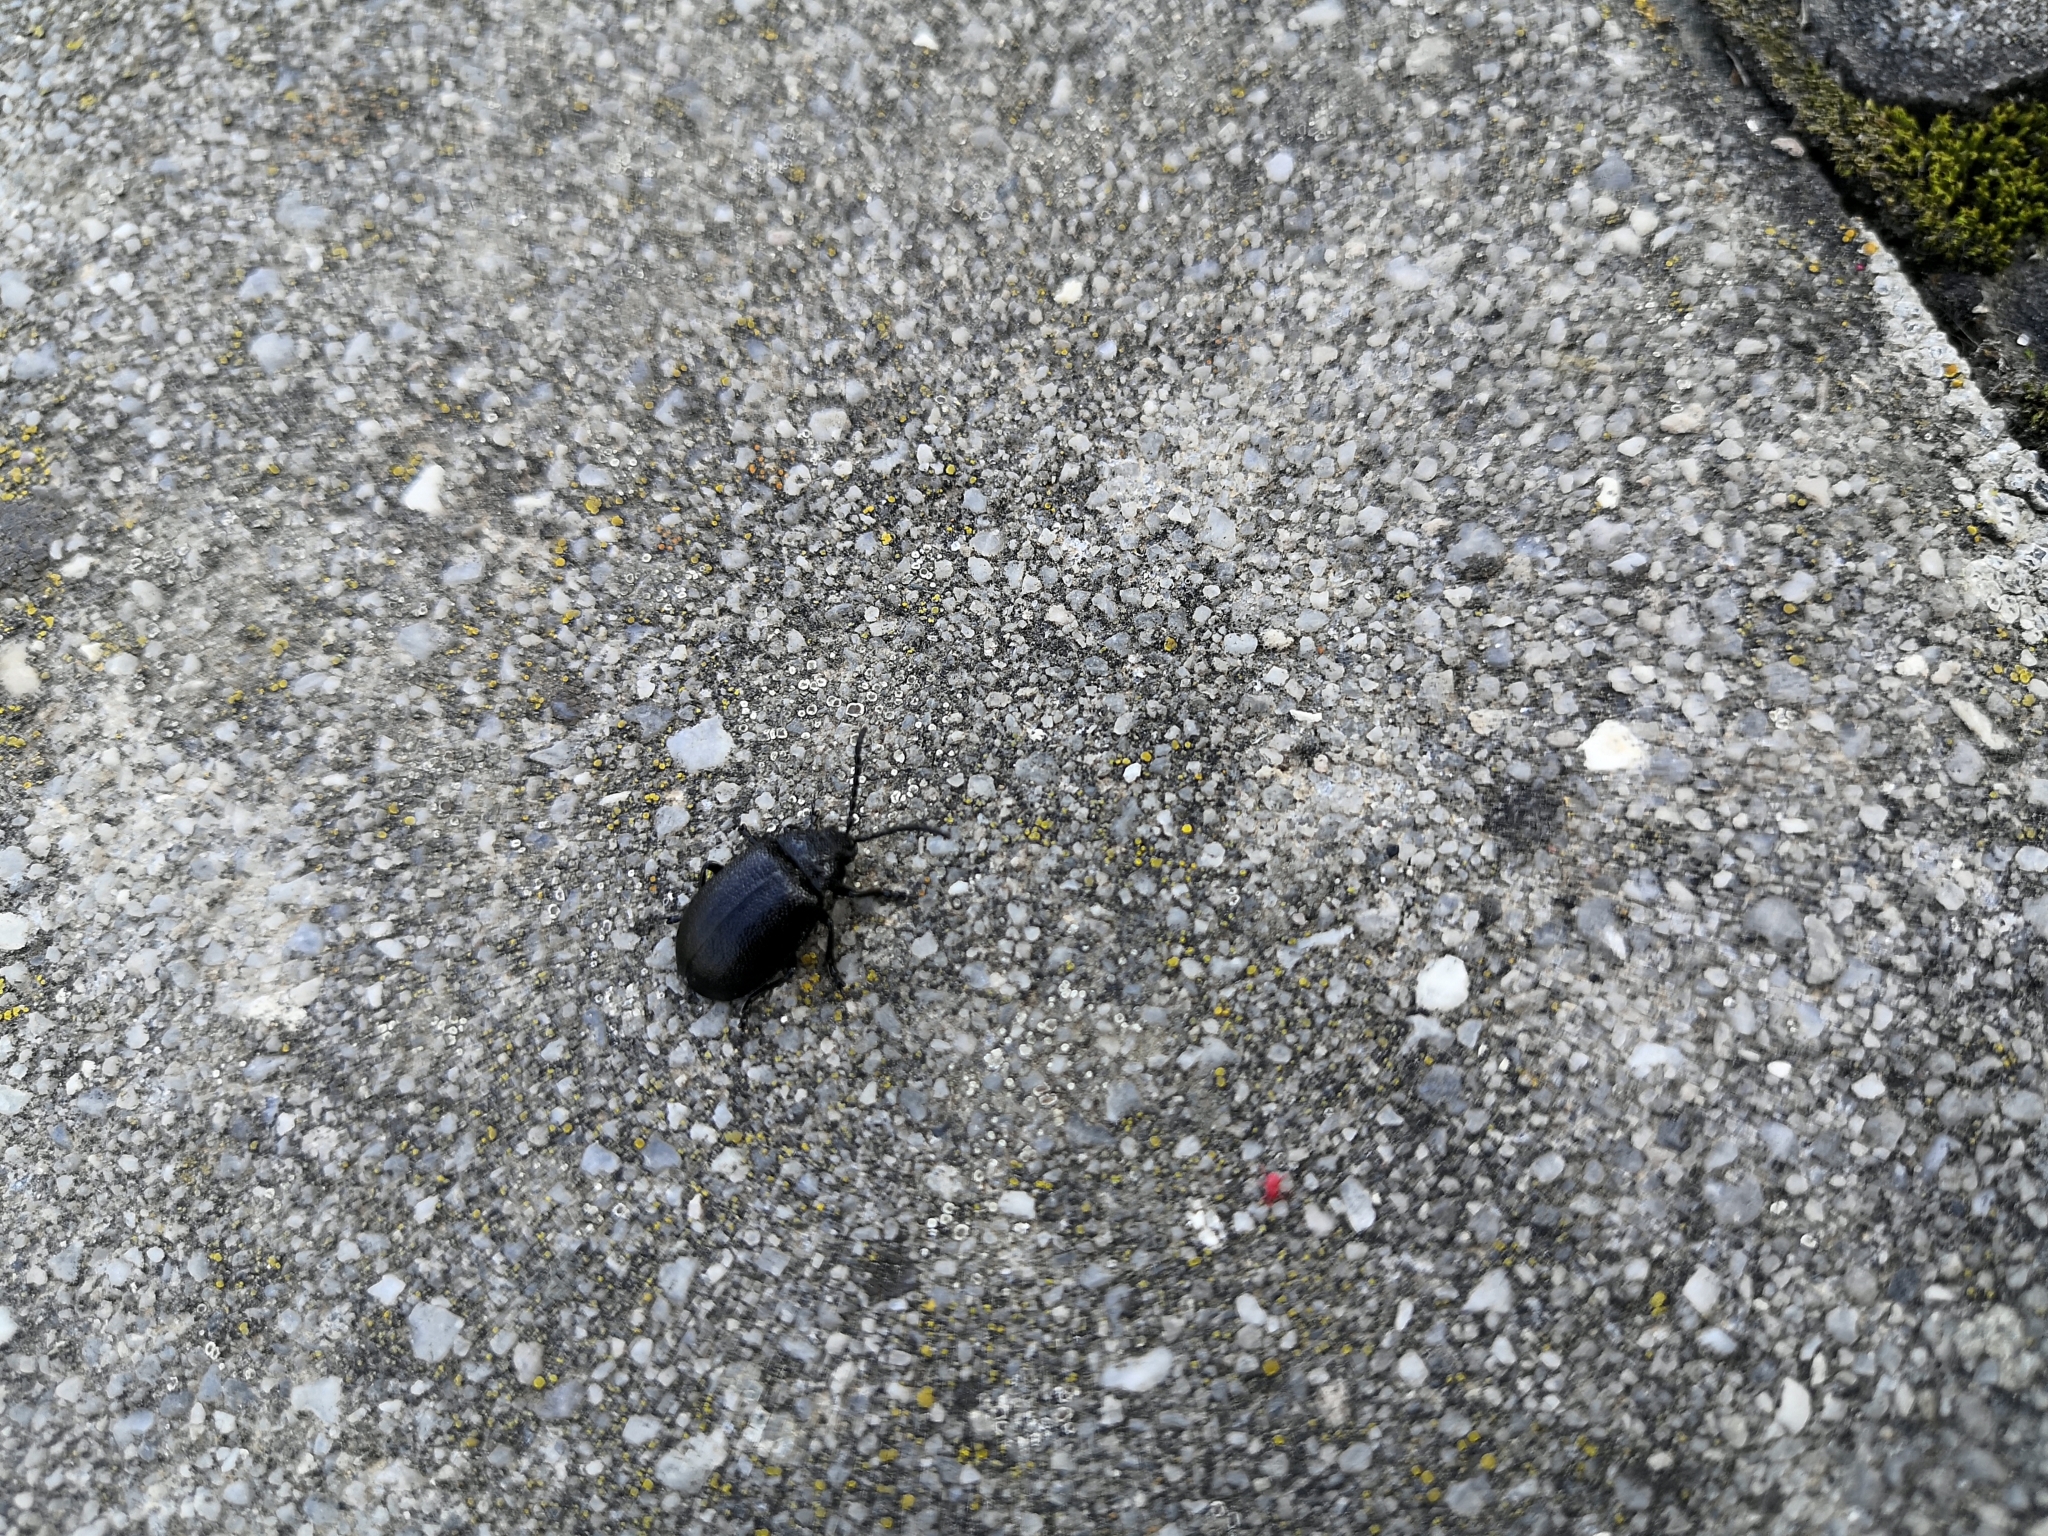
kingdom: Animalia
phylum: Arthropoda
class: Insecta
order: Coleoptera
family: Chrysomelidae
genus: Galeruca
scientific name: Galeruca tanaceti
